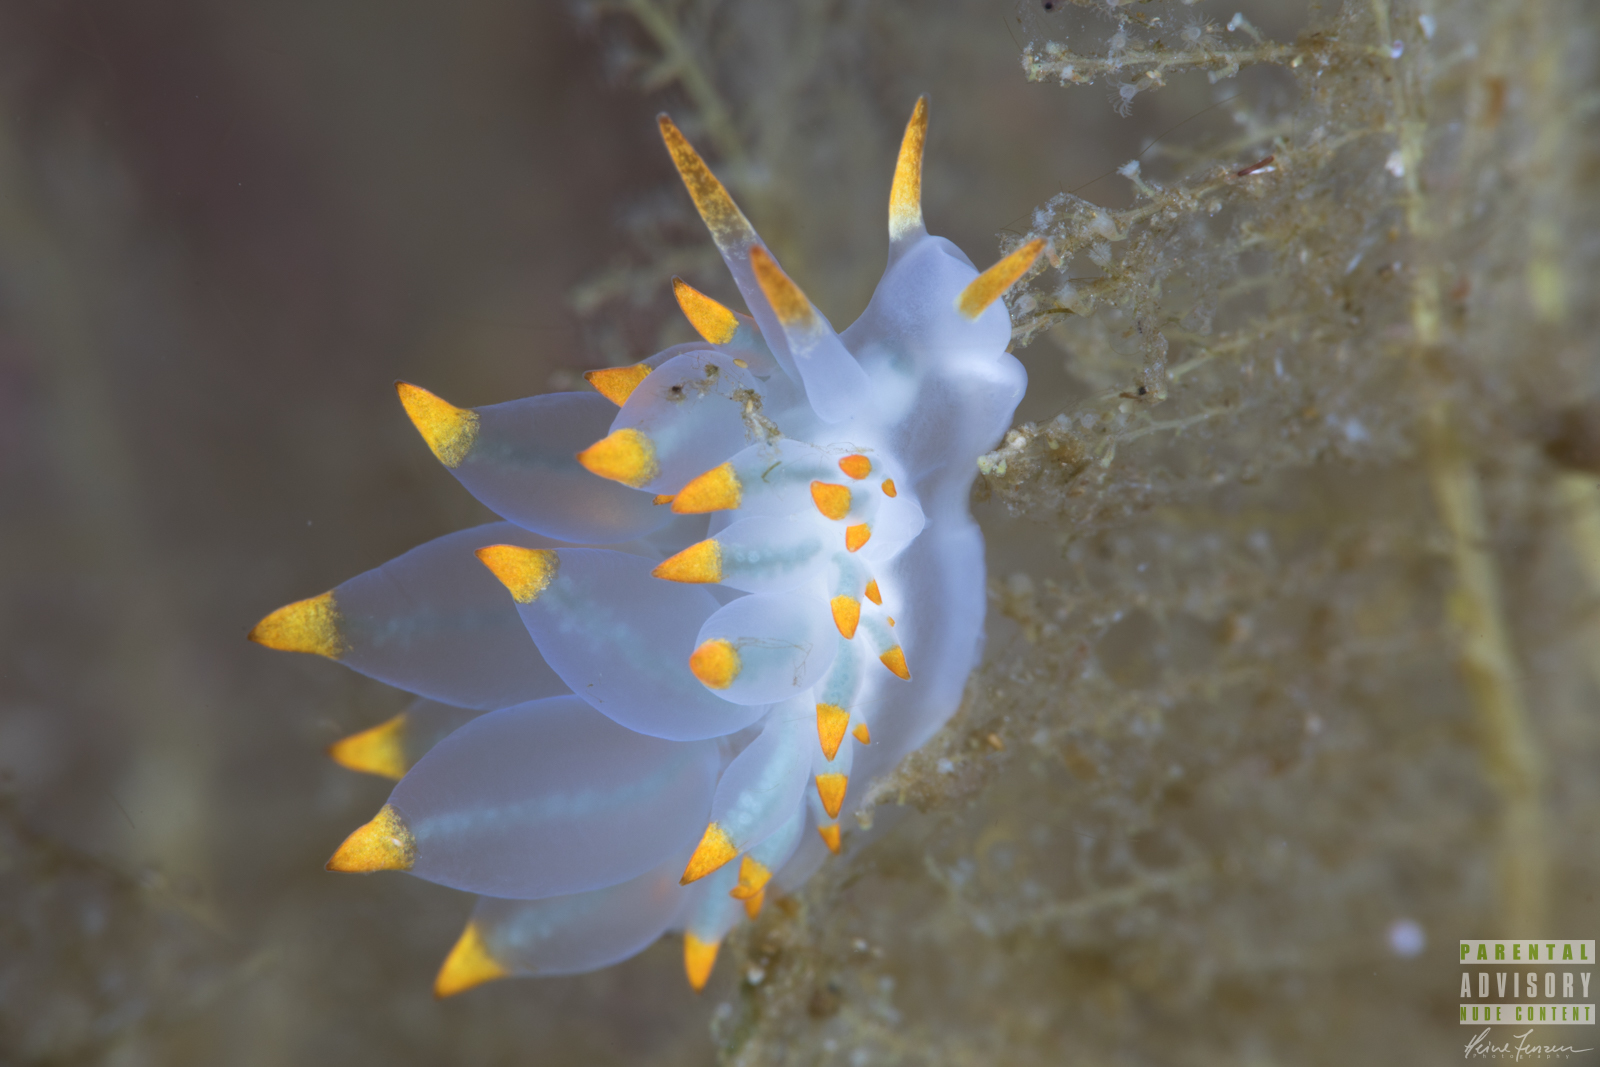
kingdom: Animalia
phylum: Mollusca
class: Gastropoda
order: Nudibranchia
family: Eubranchidae
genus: Amphorina
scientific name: Amphorina farrani
